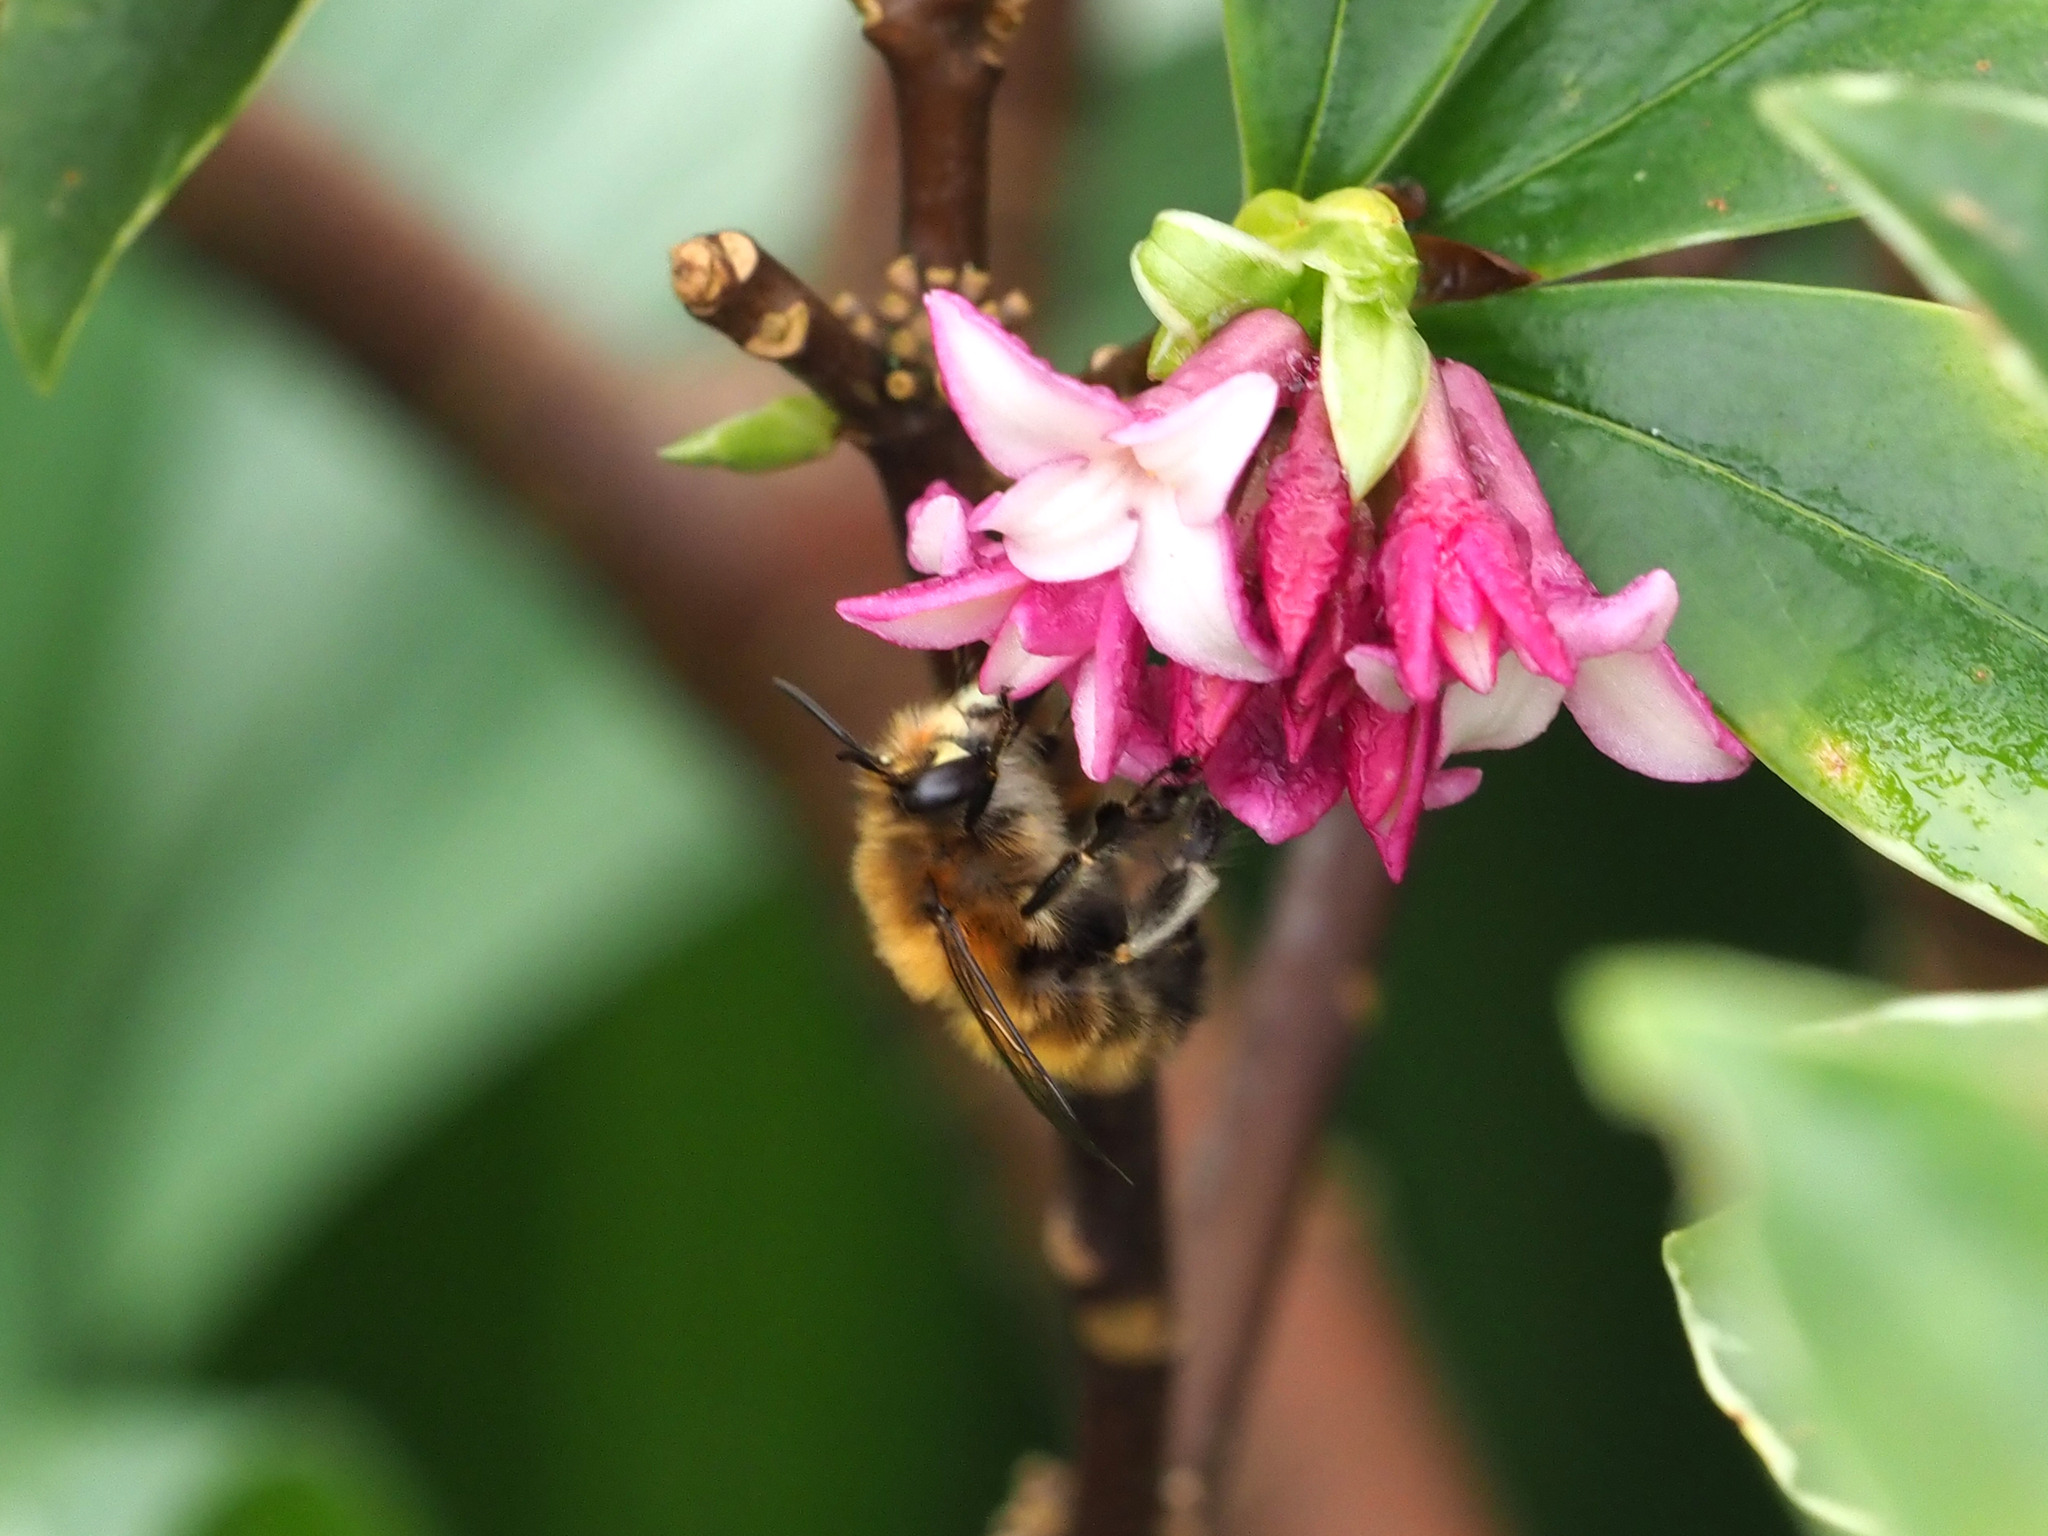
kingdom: Animalia
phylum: Arthropoda
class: Insecta
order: Hymenoptera
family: Apidae
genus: Anthophora
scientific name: Anthophora plumipes
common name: Hairy-footed flower bee
